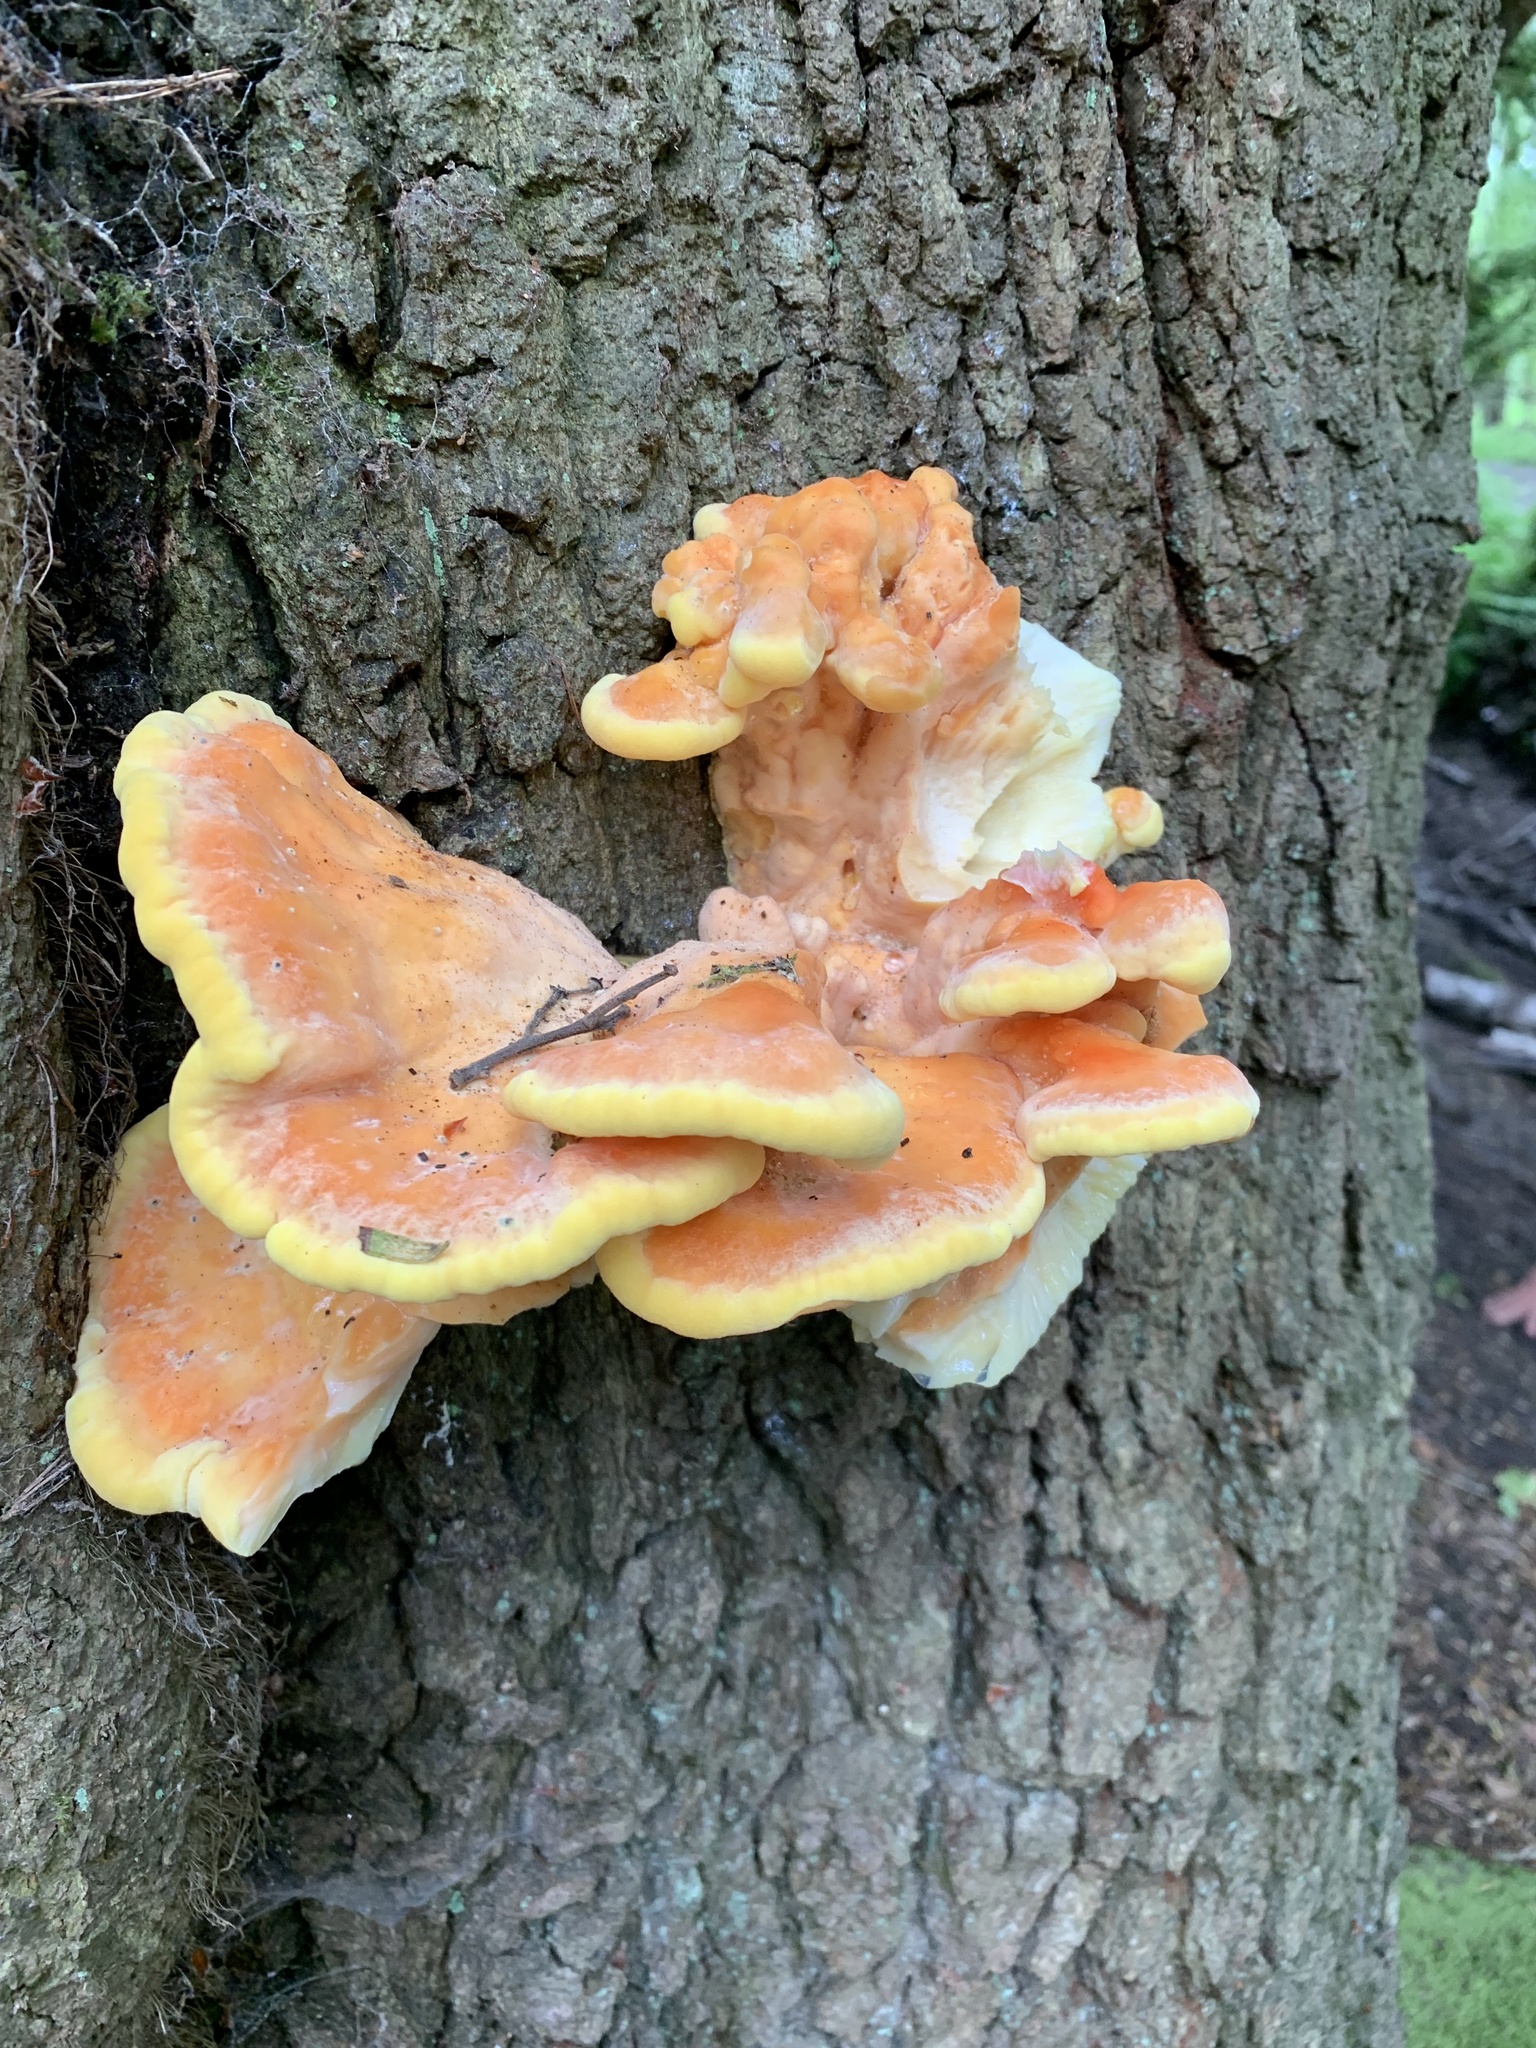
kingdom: Fungi
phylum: Basidiomycota
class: Agaricomycetes
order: Polyporales
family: Laetiporaceae
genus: Laetiporus
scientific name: Laetiporus sulphureus
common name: Chicken of the woods
